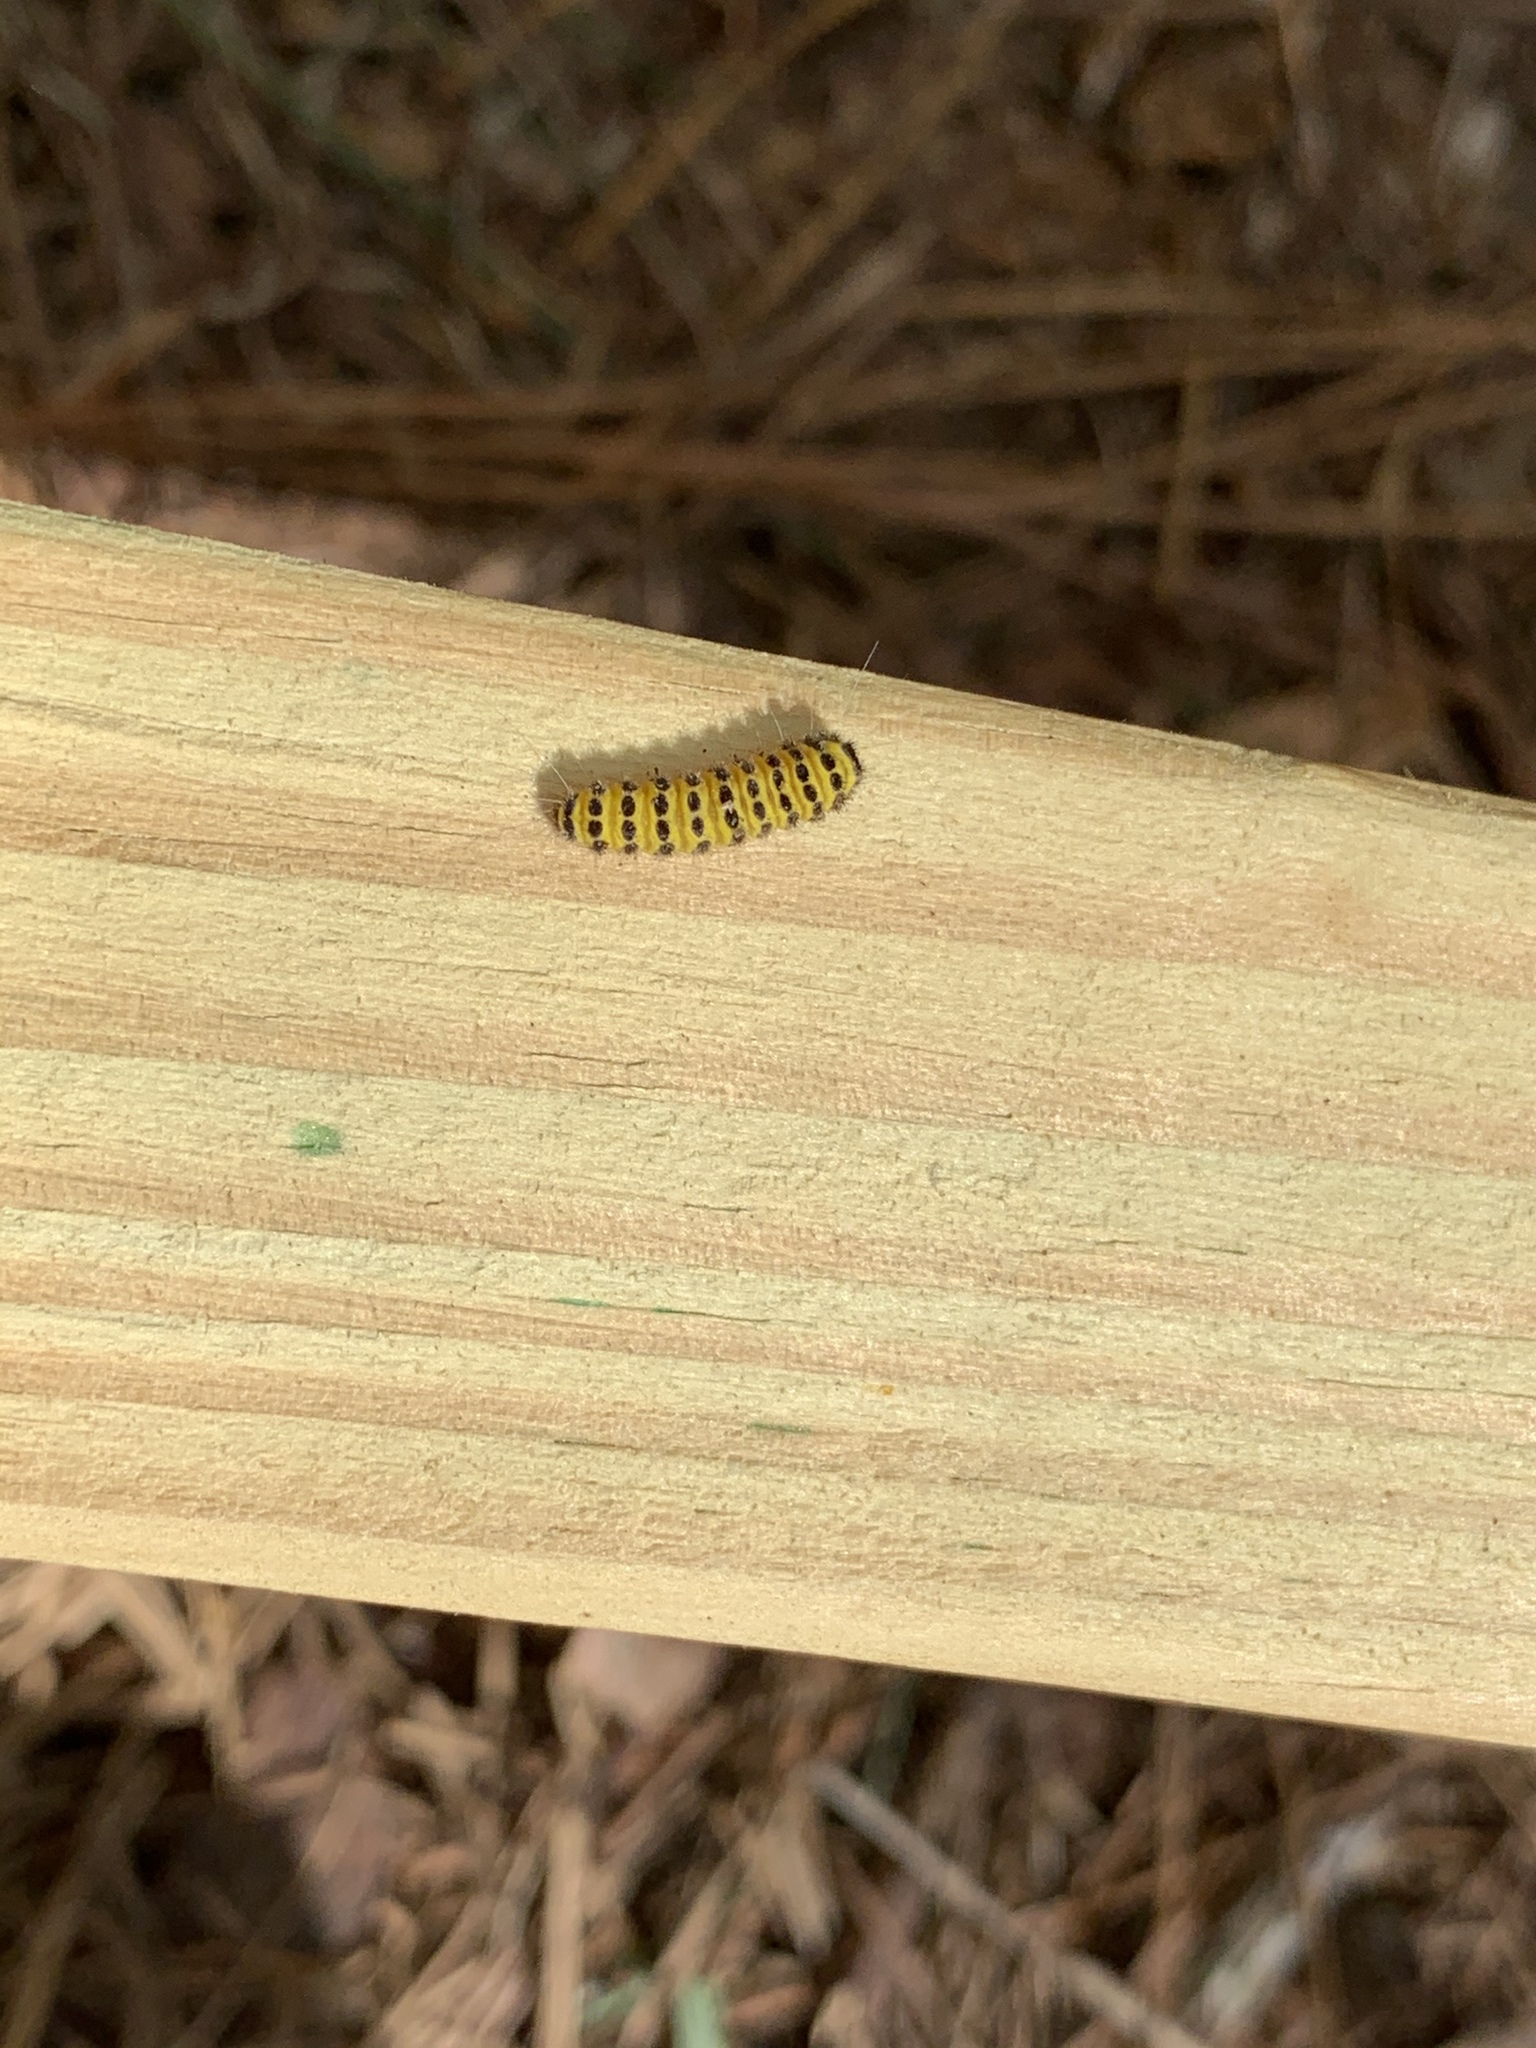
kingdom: Animalia
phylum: Arthropoda
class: Insecta
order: Lepidoptera
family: Zygaenidae
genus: Harrisina
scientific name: Harrisina americana
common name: Grapeleaf skeletonizer moth
